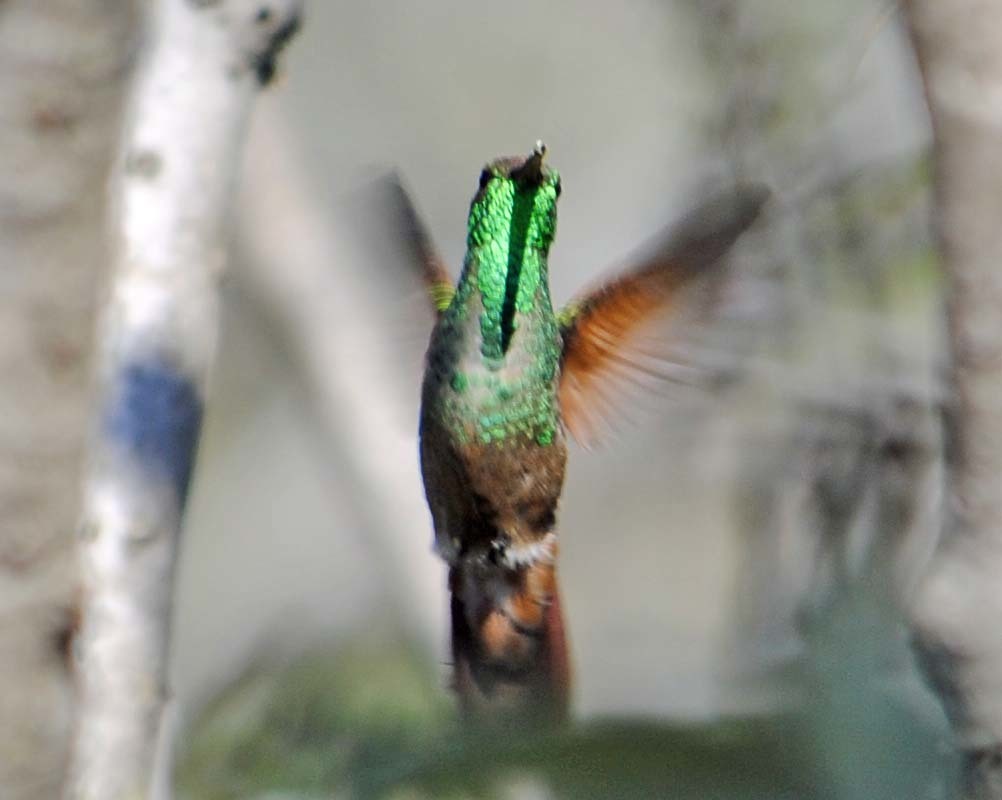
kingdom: Animalia
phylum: Chordata
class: Aves
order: Apodiformes
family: Trochilidae
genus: Saucerottia
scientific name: Saucerottia beryllina
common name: Berylline hummingbird
